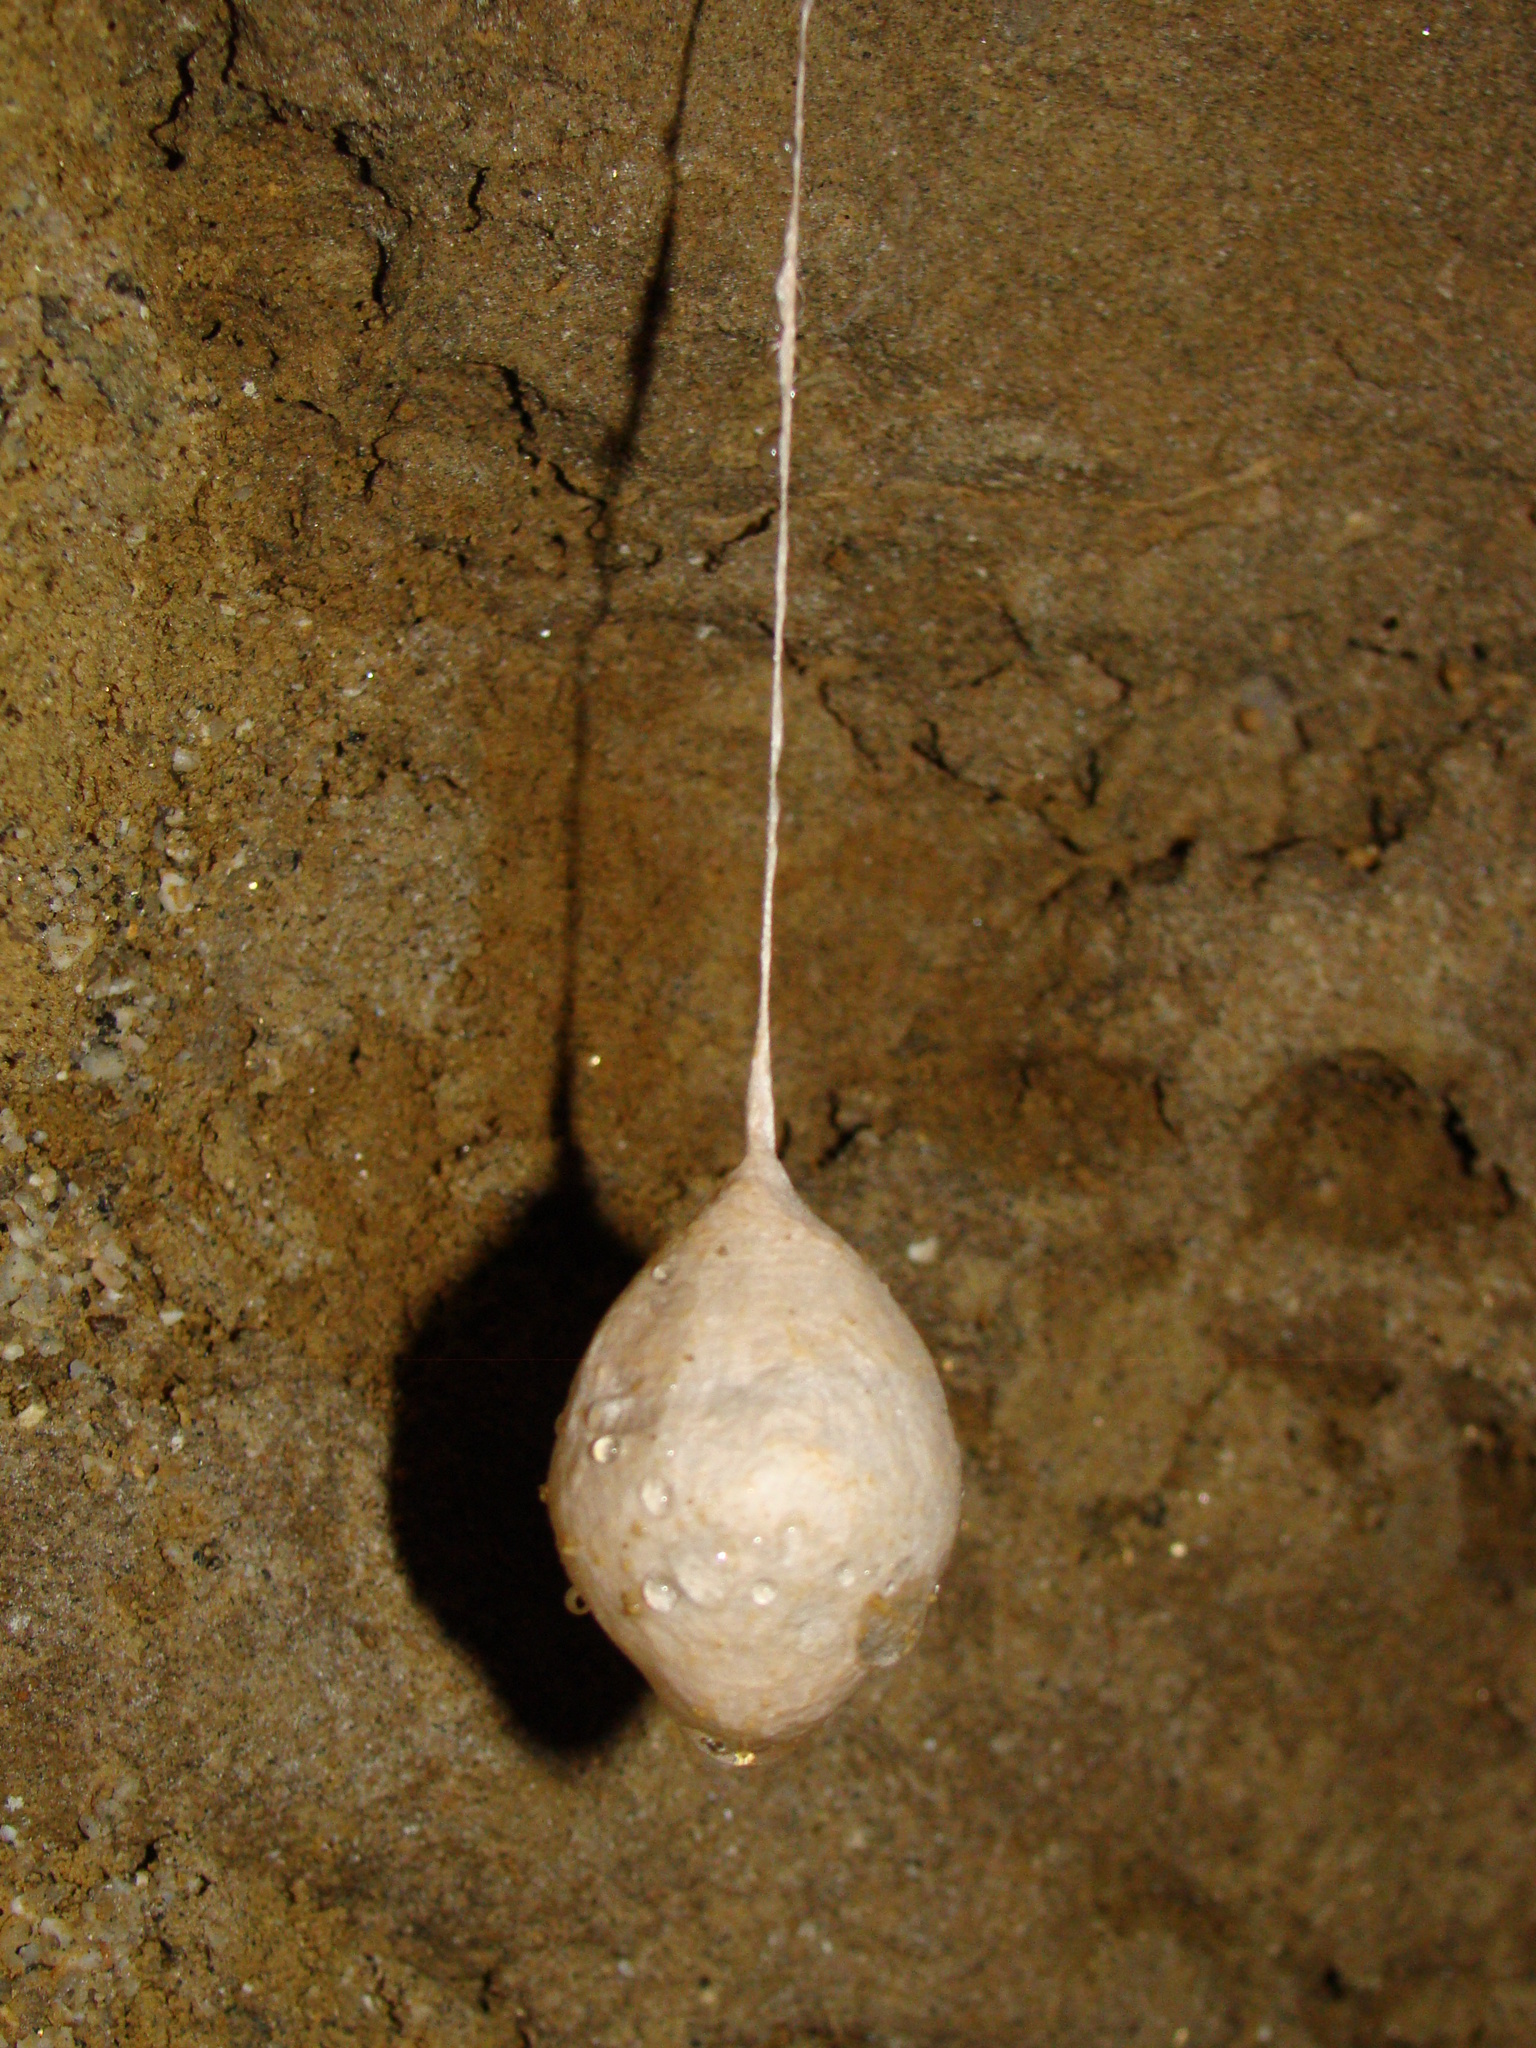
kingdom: Animalia
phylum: Arthropoda
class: Arachnida
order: Araneae
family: Gradungulidae
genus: Spelungula
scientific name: Spelungula cavernicola
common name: Nelson cave spider
